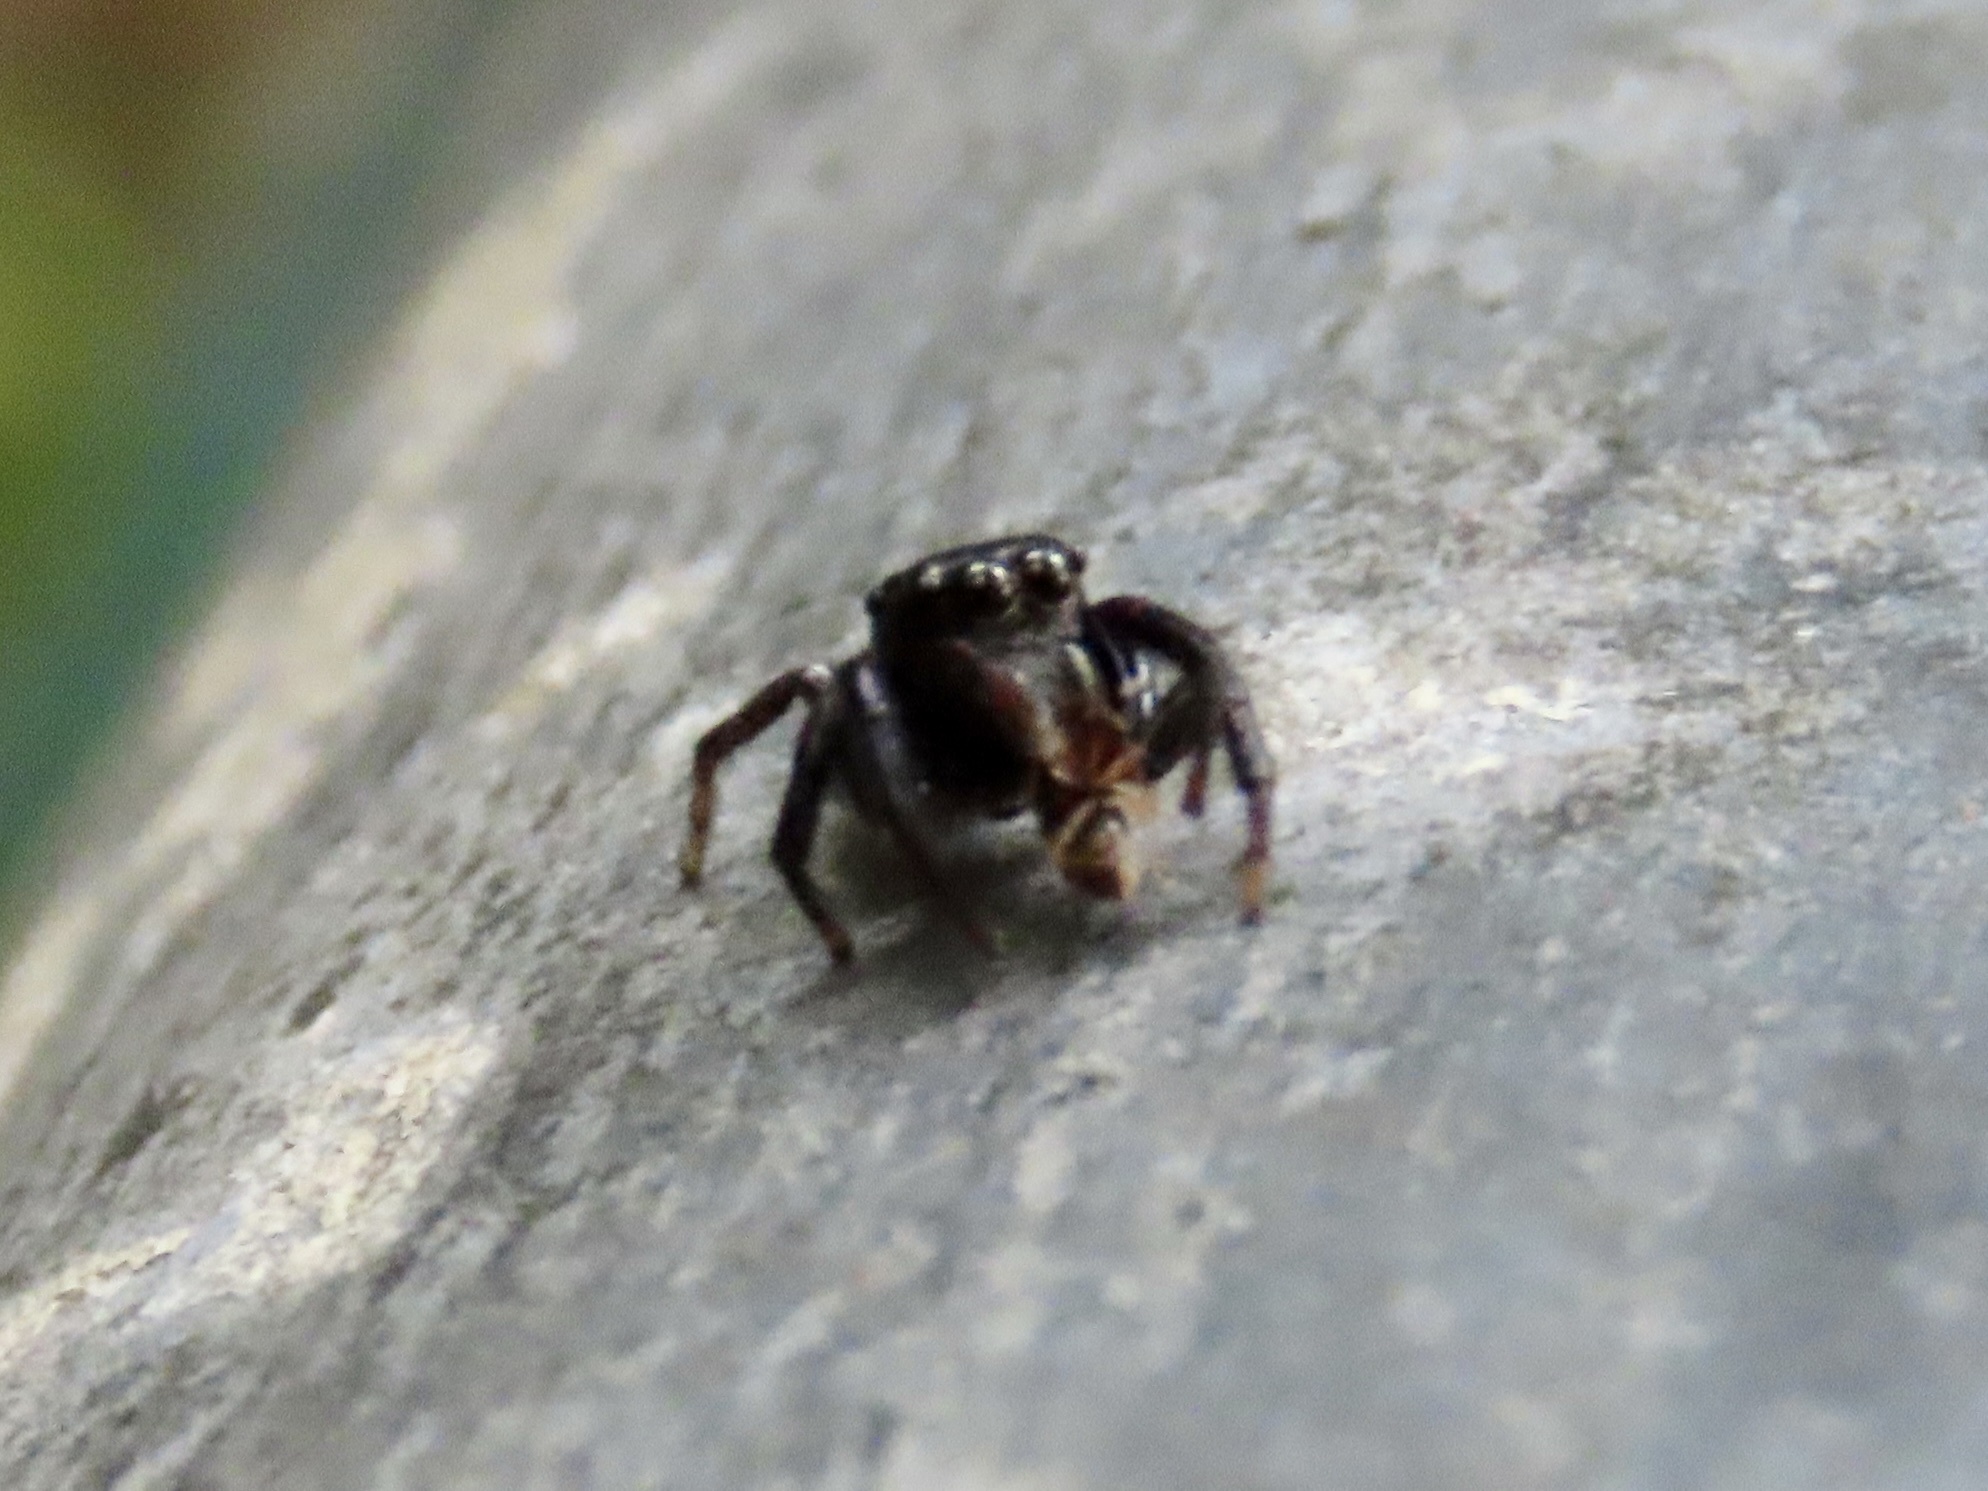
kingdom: Animalia
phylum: Arthropoda
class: Arachnida
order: Araneae
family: Salticidae
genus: Ptocasius
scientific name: Ptocasius strupifer
